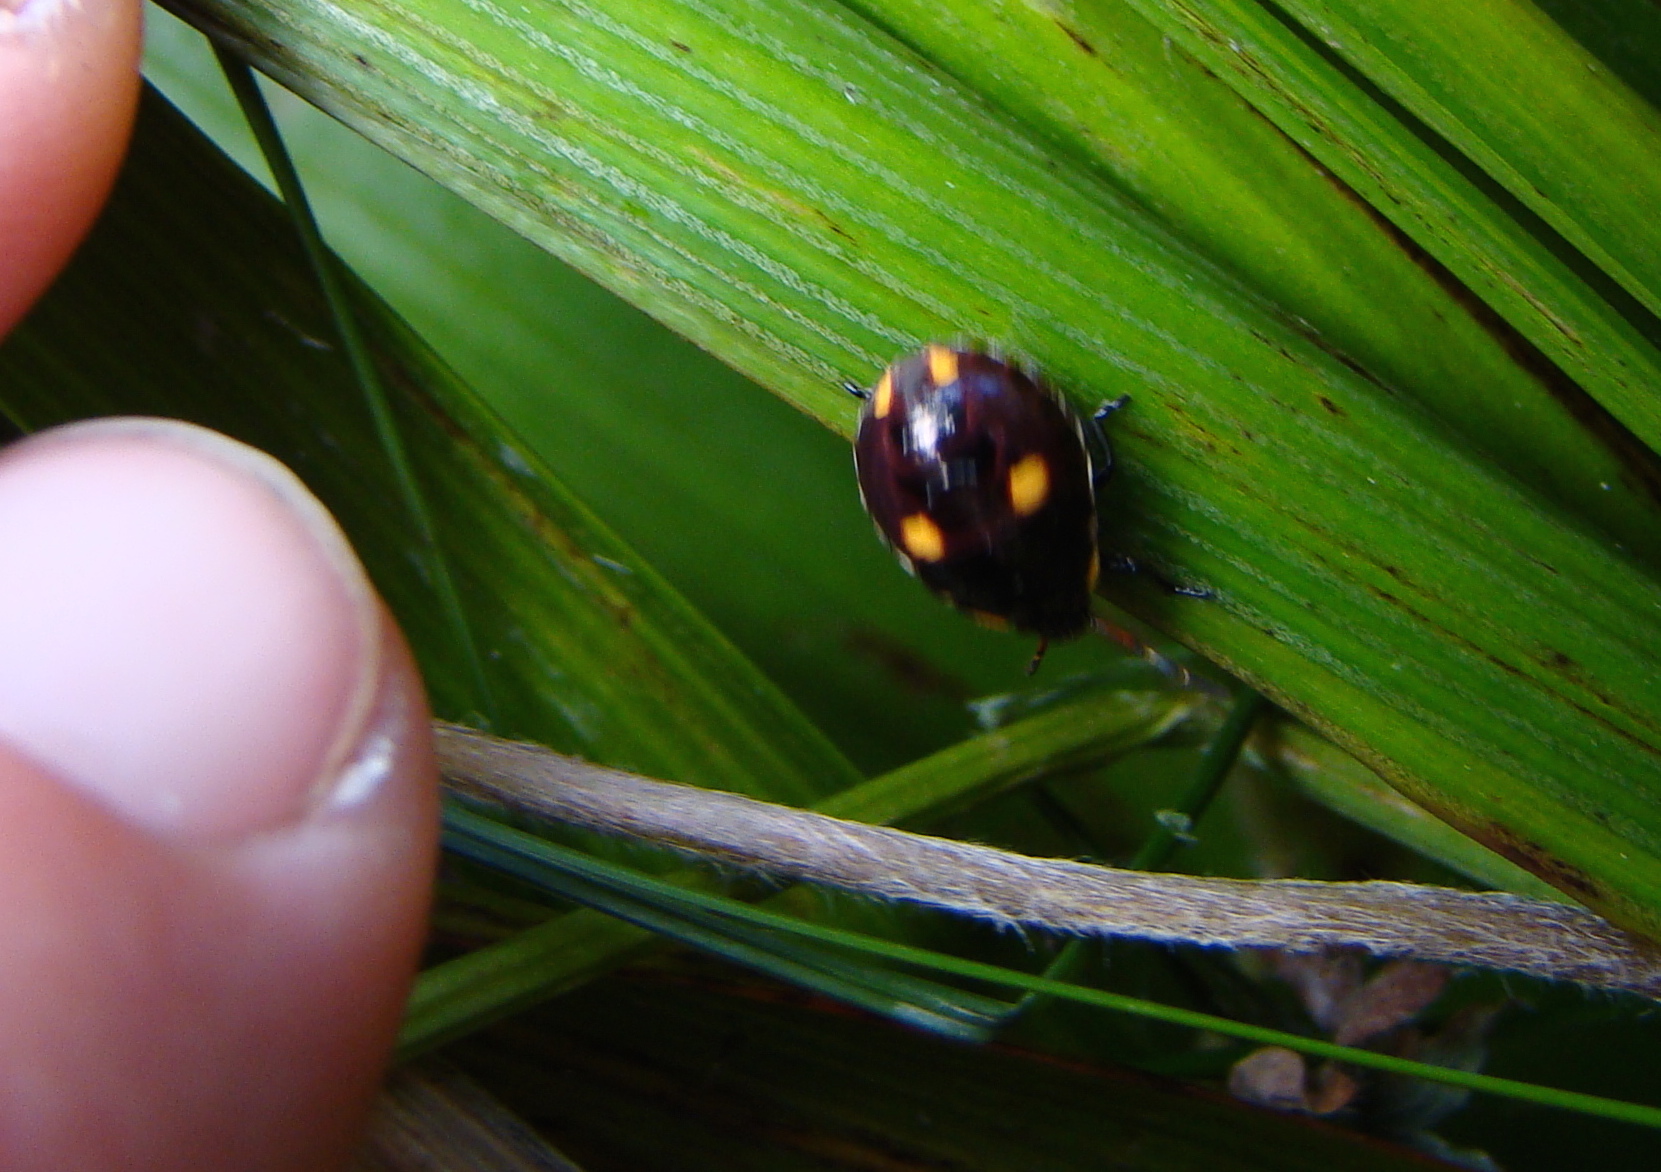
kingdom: Animalia
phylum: Arthropoda
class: Insecta
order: Hemiptera
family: Pentatomidae
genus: Cermatulus
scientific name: Cermatulus nasalis
